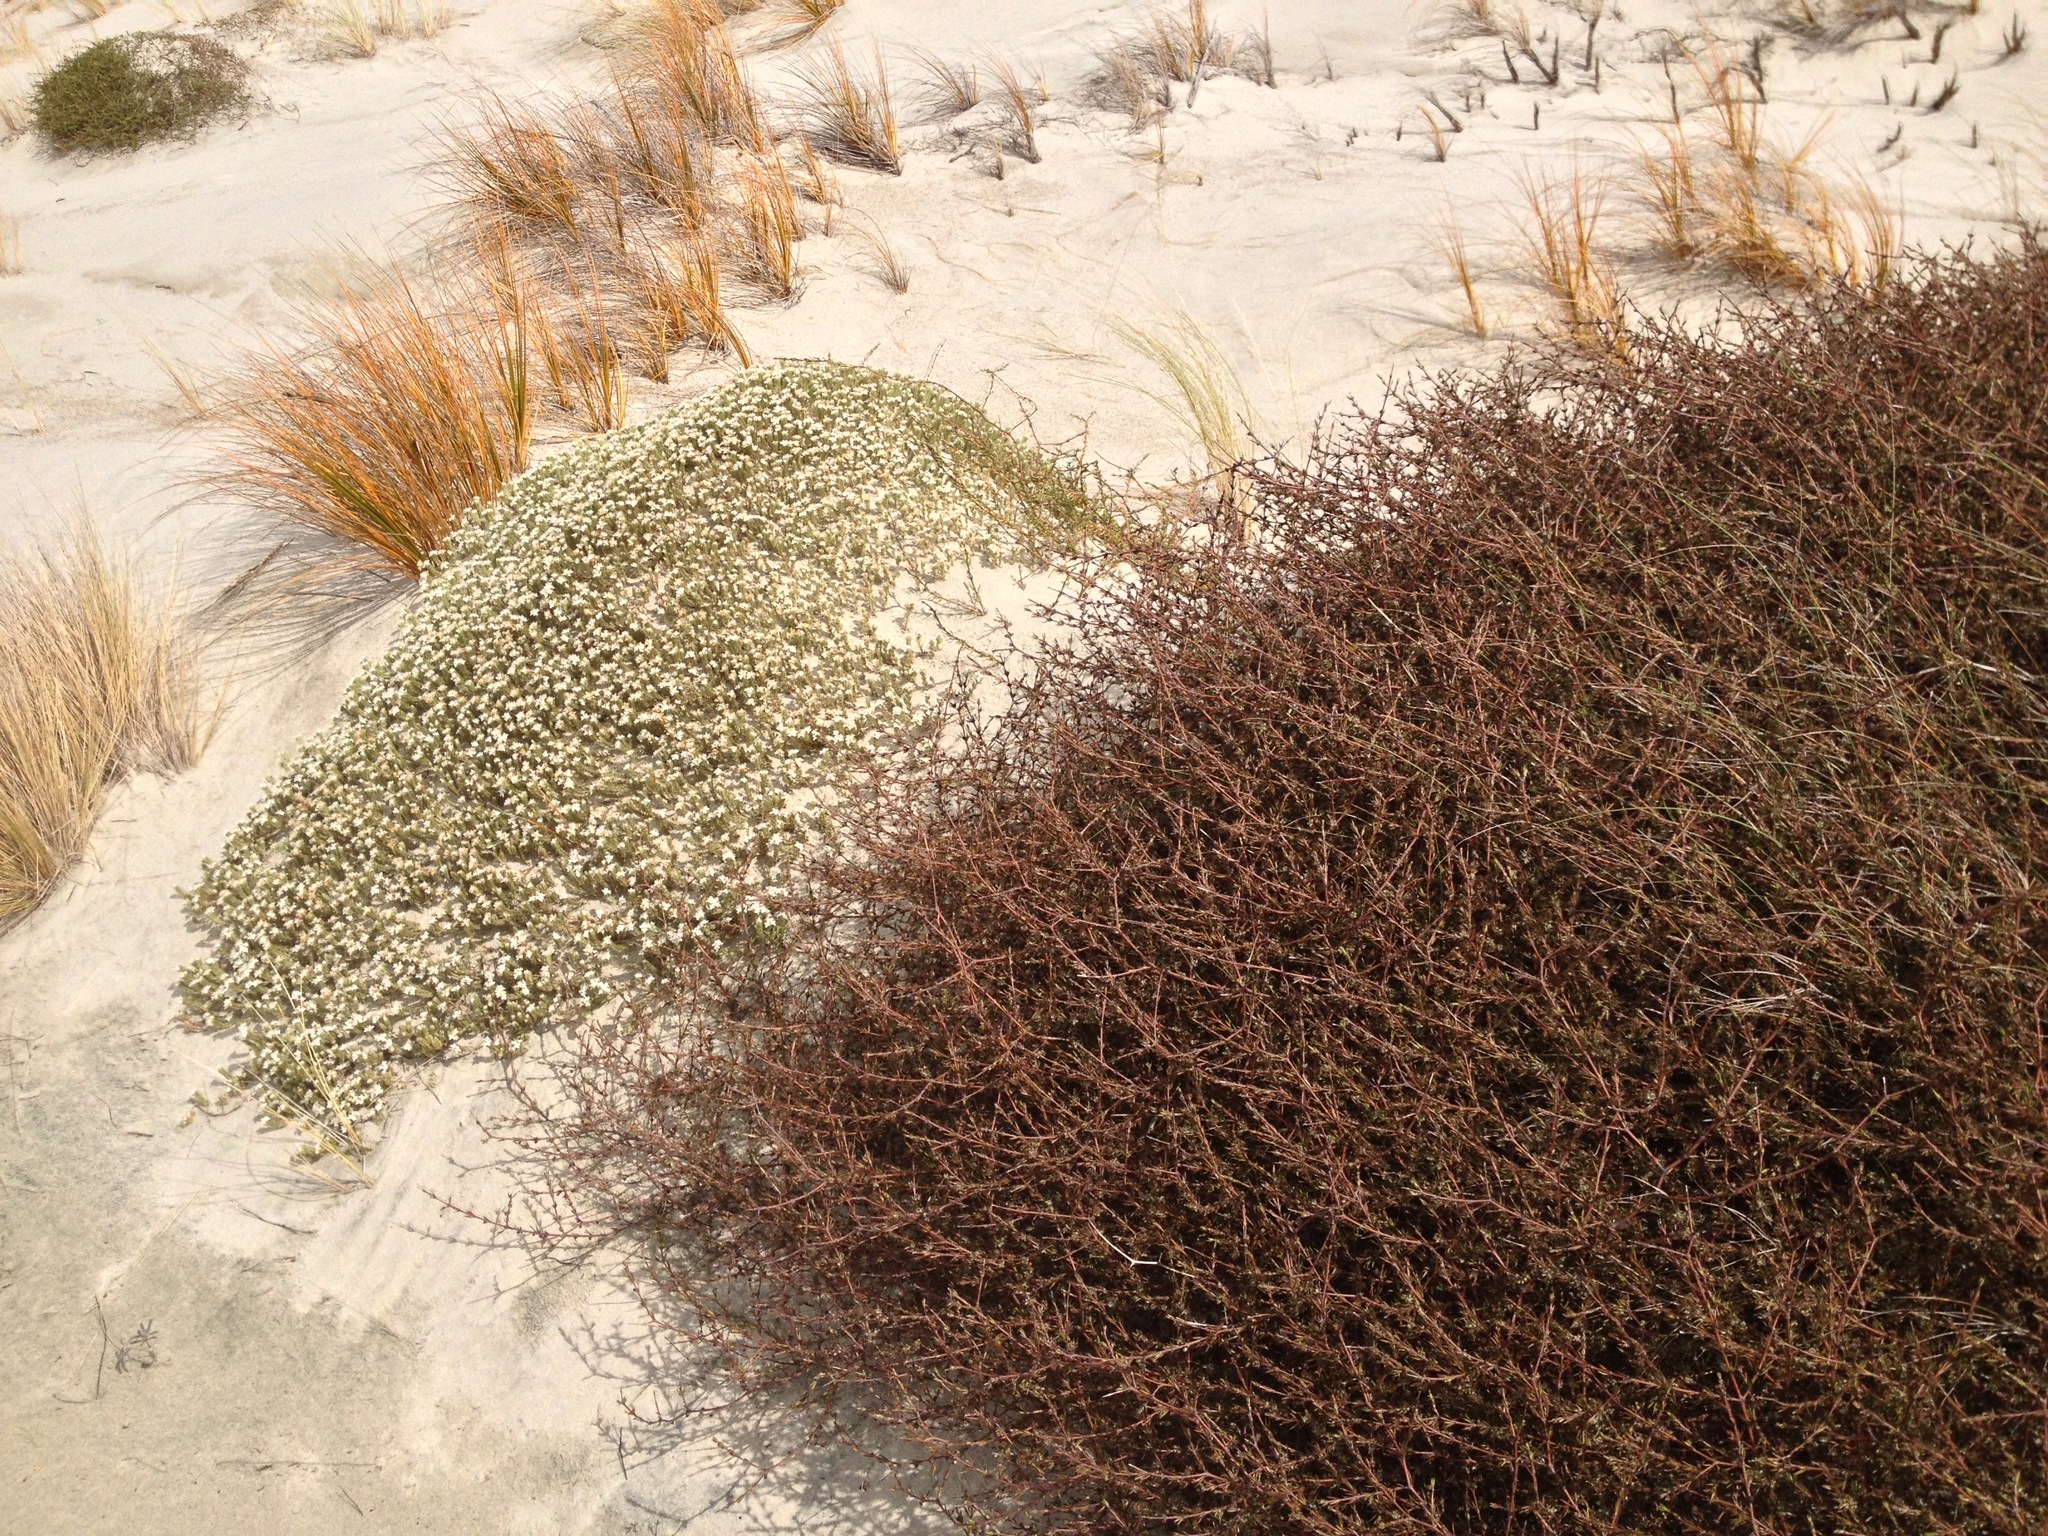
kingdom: Plantae
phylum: Tracheophyta
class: Magnoliopsida
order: Gentianales
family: Rubiaceae
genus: Coprosma
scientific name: Coprosma acerosa
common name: Sand coprosma
